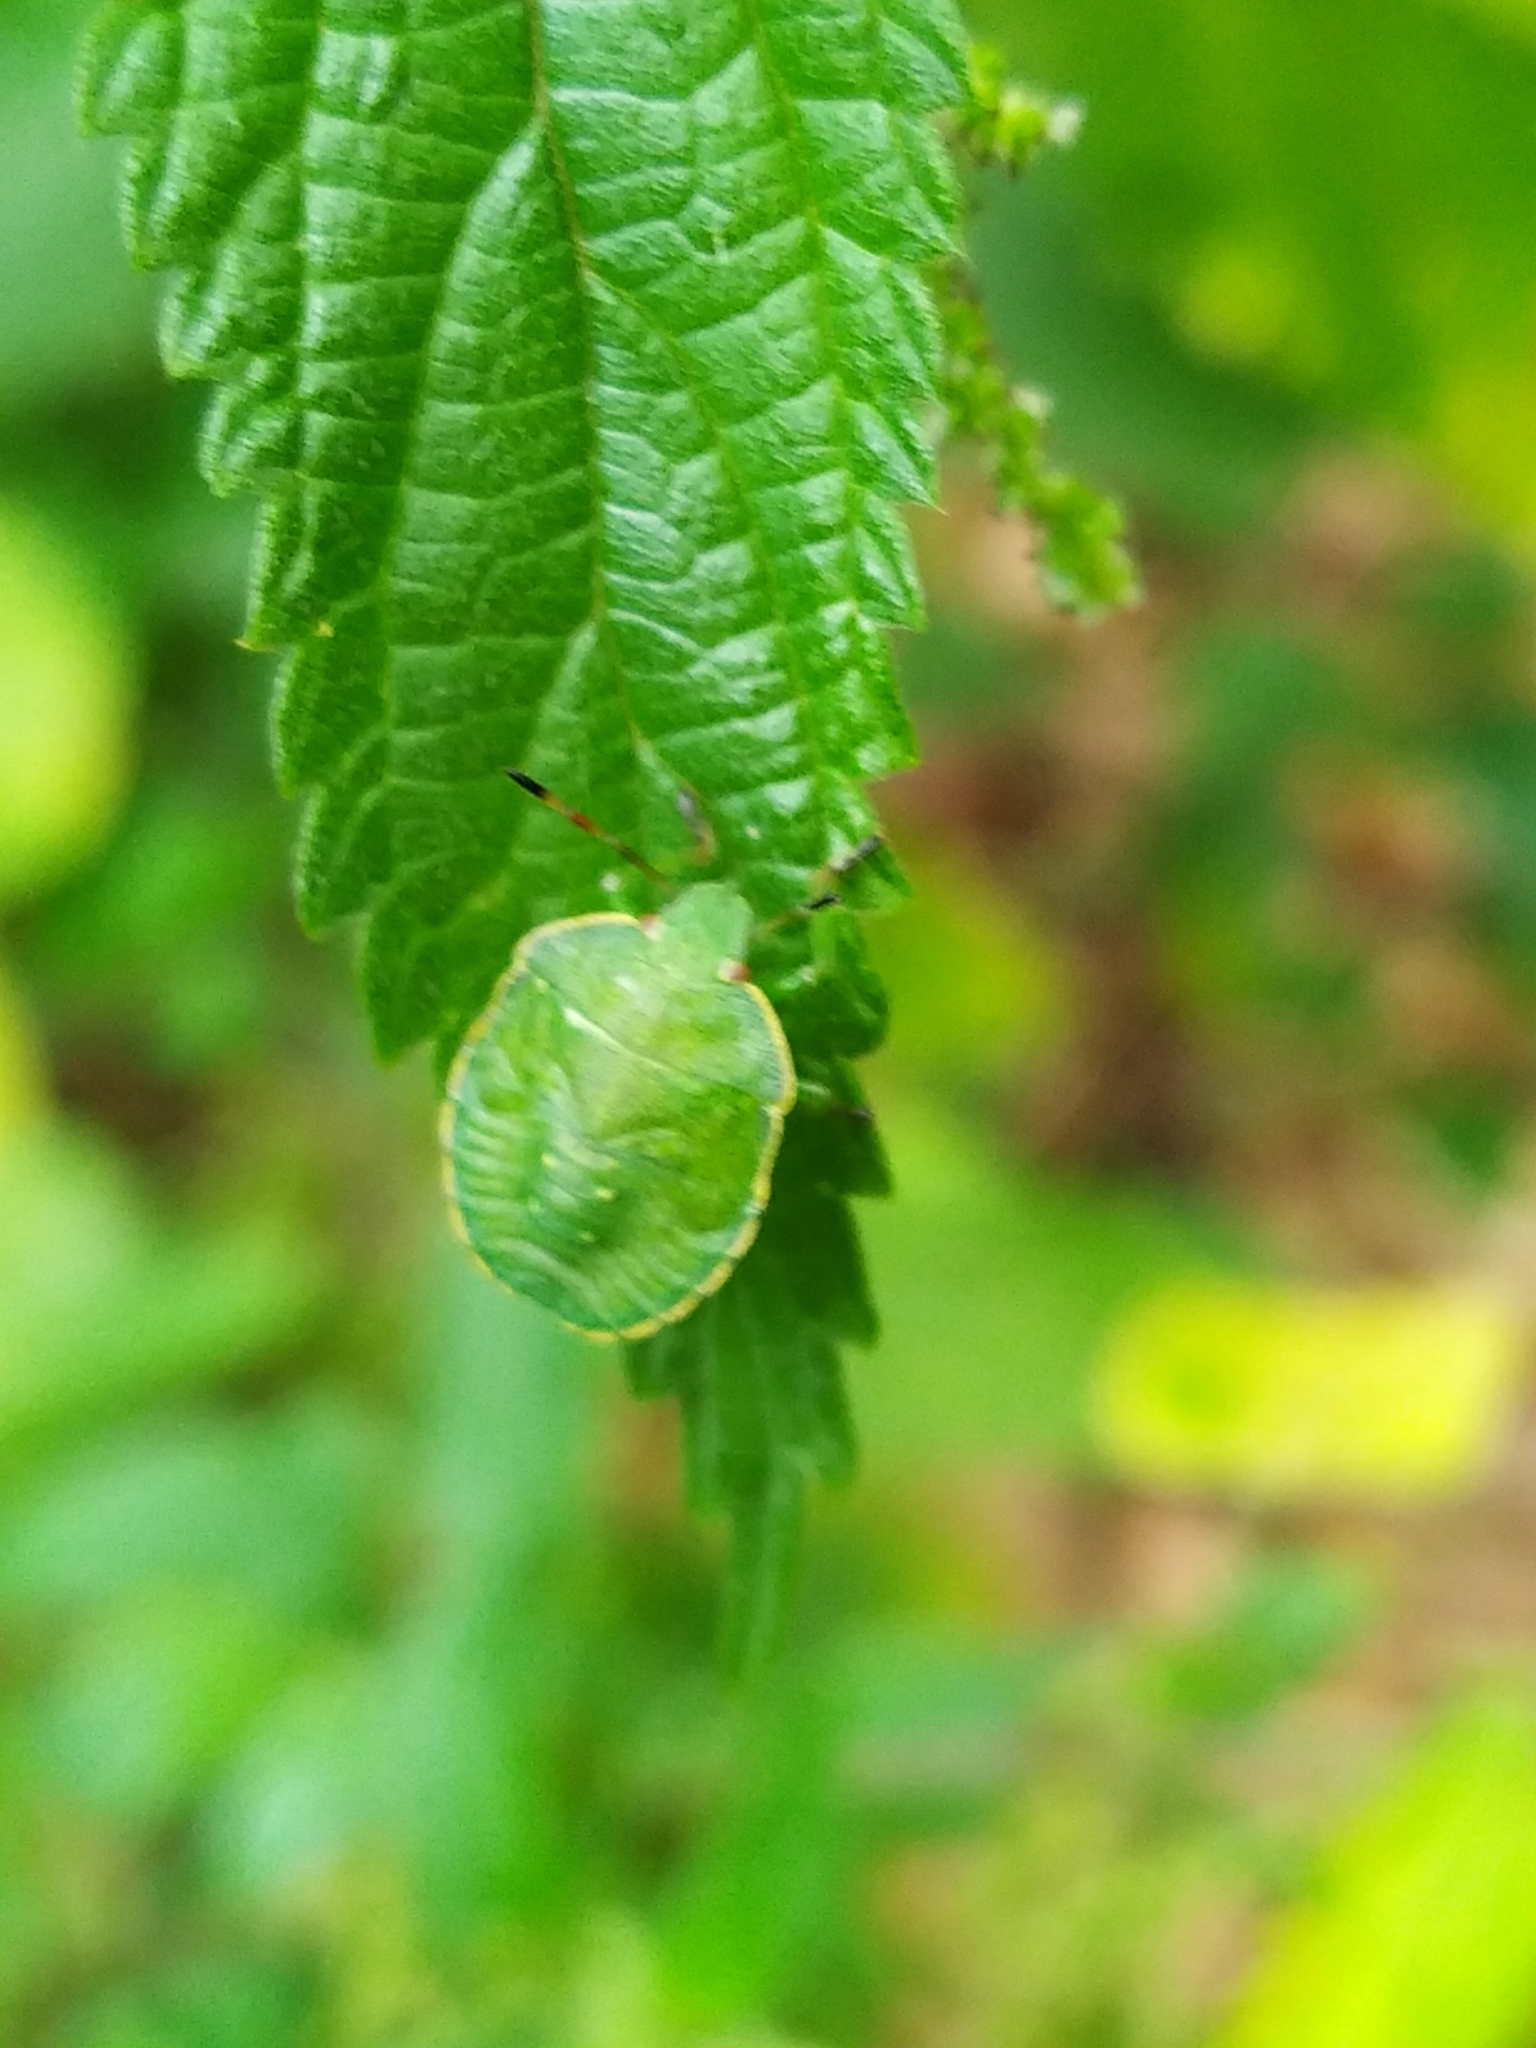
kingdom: Animalia
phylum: Arthropoda
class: Insecta
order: Hemiptera
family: Pentatomidae
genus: Palomena
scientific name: Palomena prasina
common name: Green shieldbug
